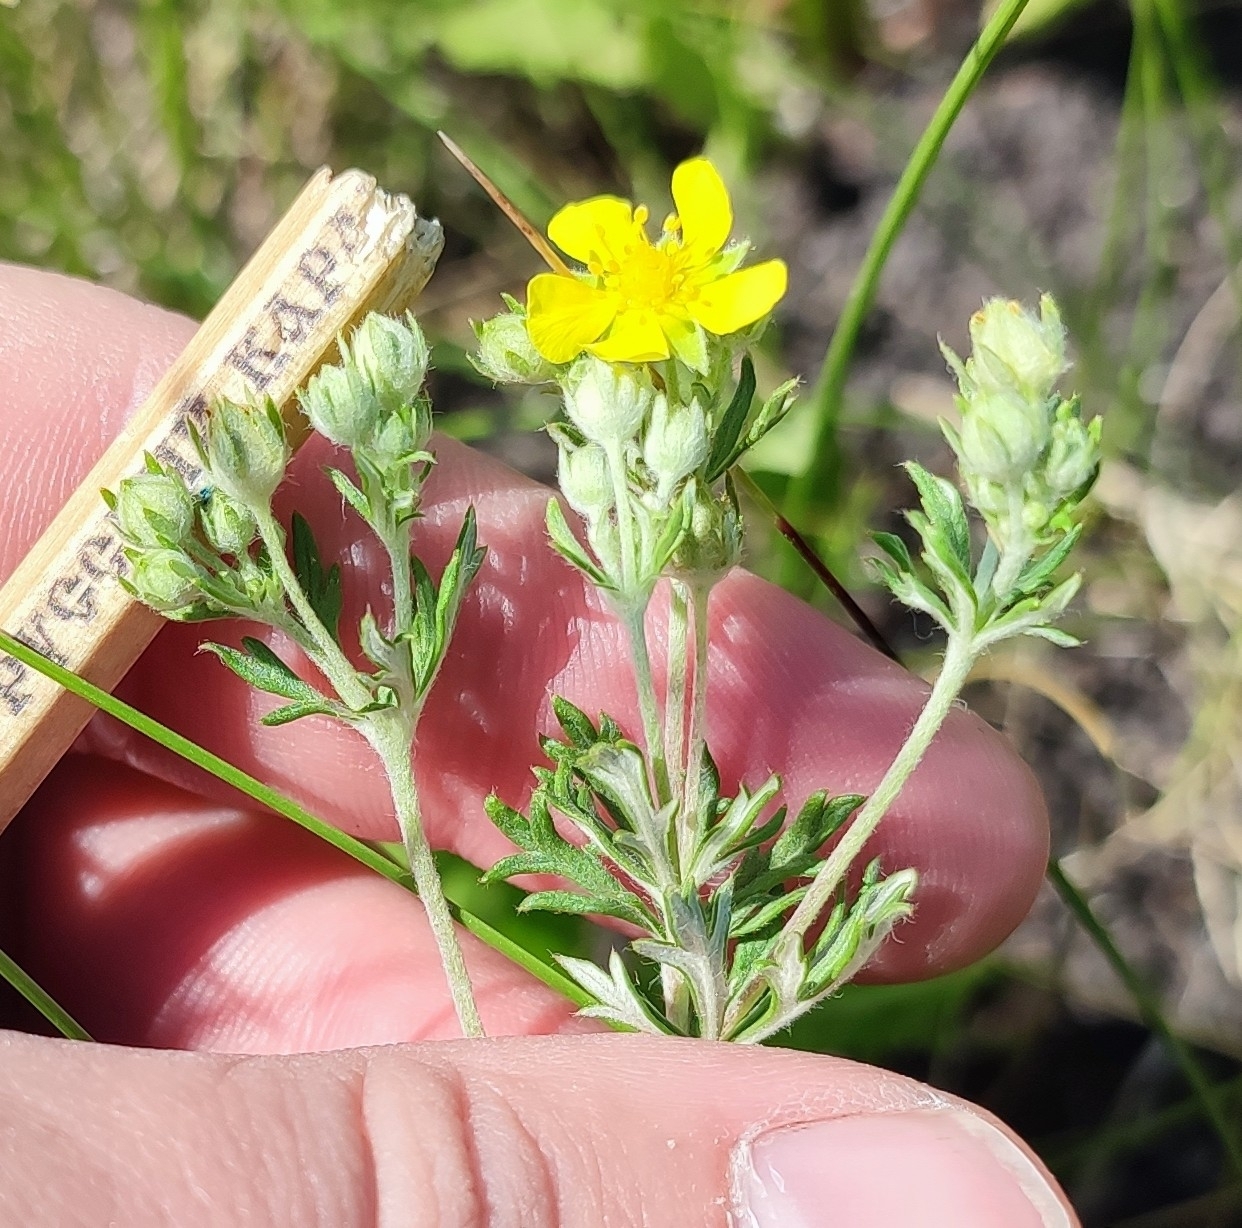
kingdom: Plantae
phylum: Tracheophyta
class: Magnoliopsida
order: Rosales
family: Rosaceae
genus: Potentilla
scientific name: Potentilla argentea
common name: Hoary cinquefoil
